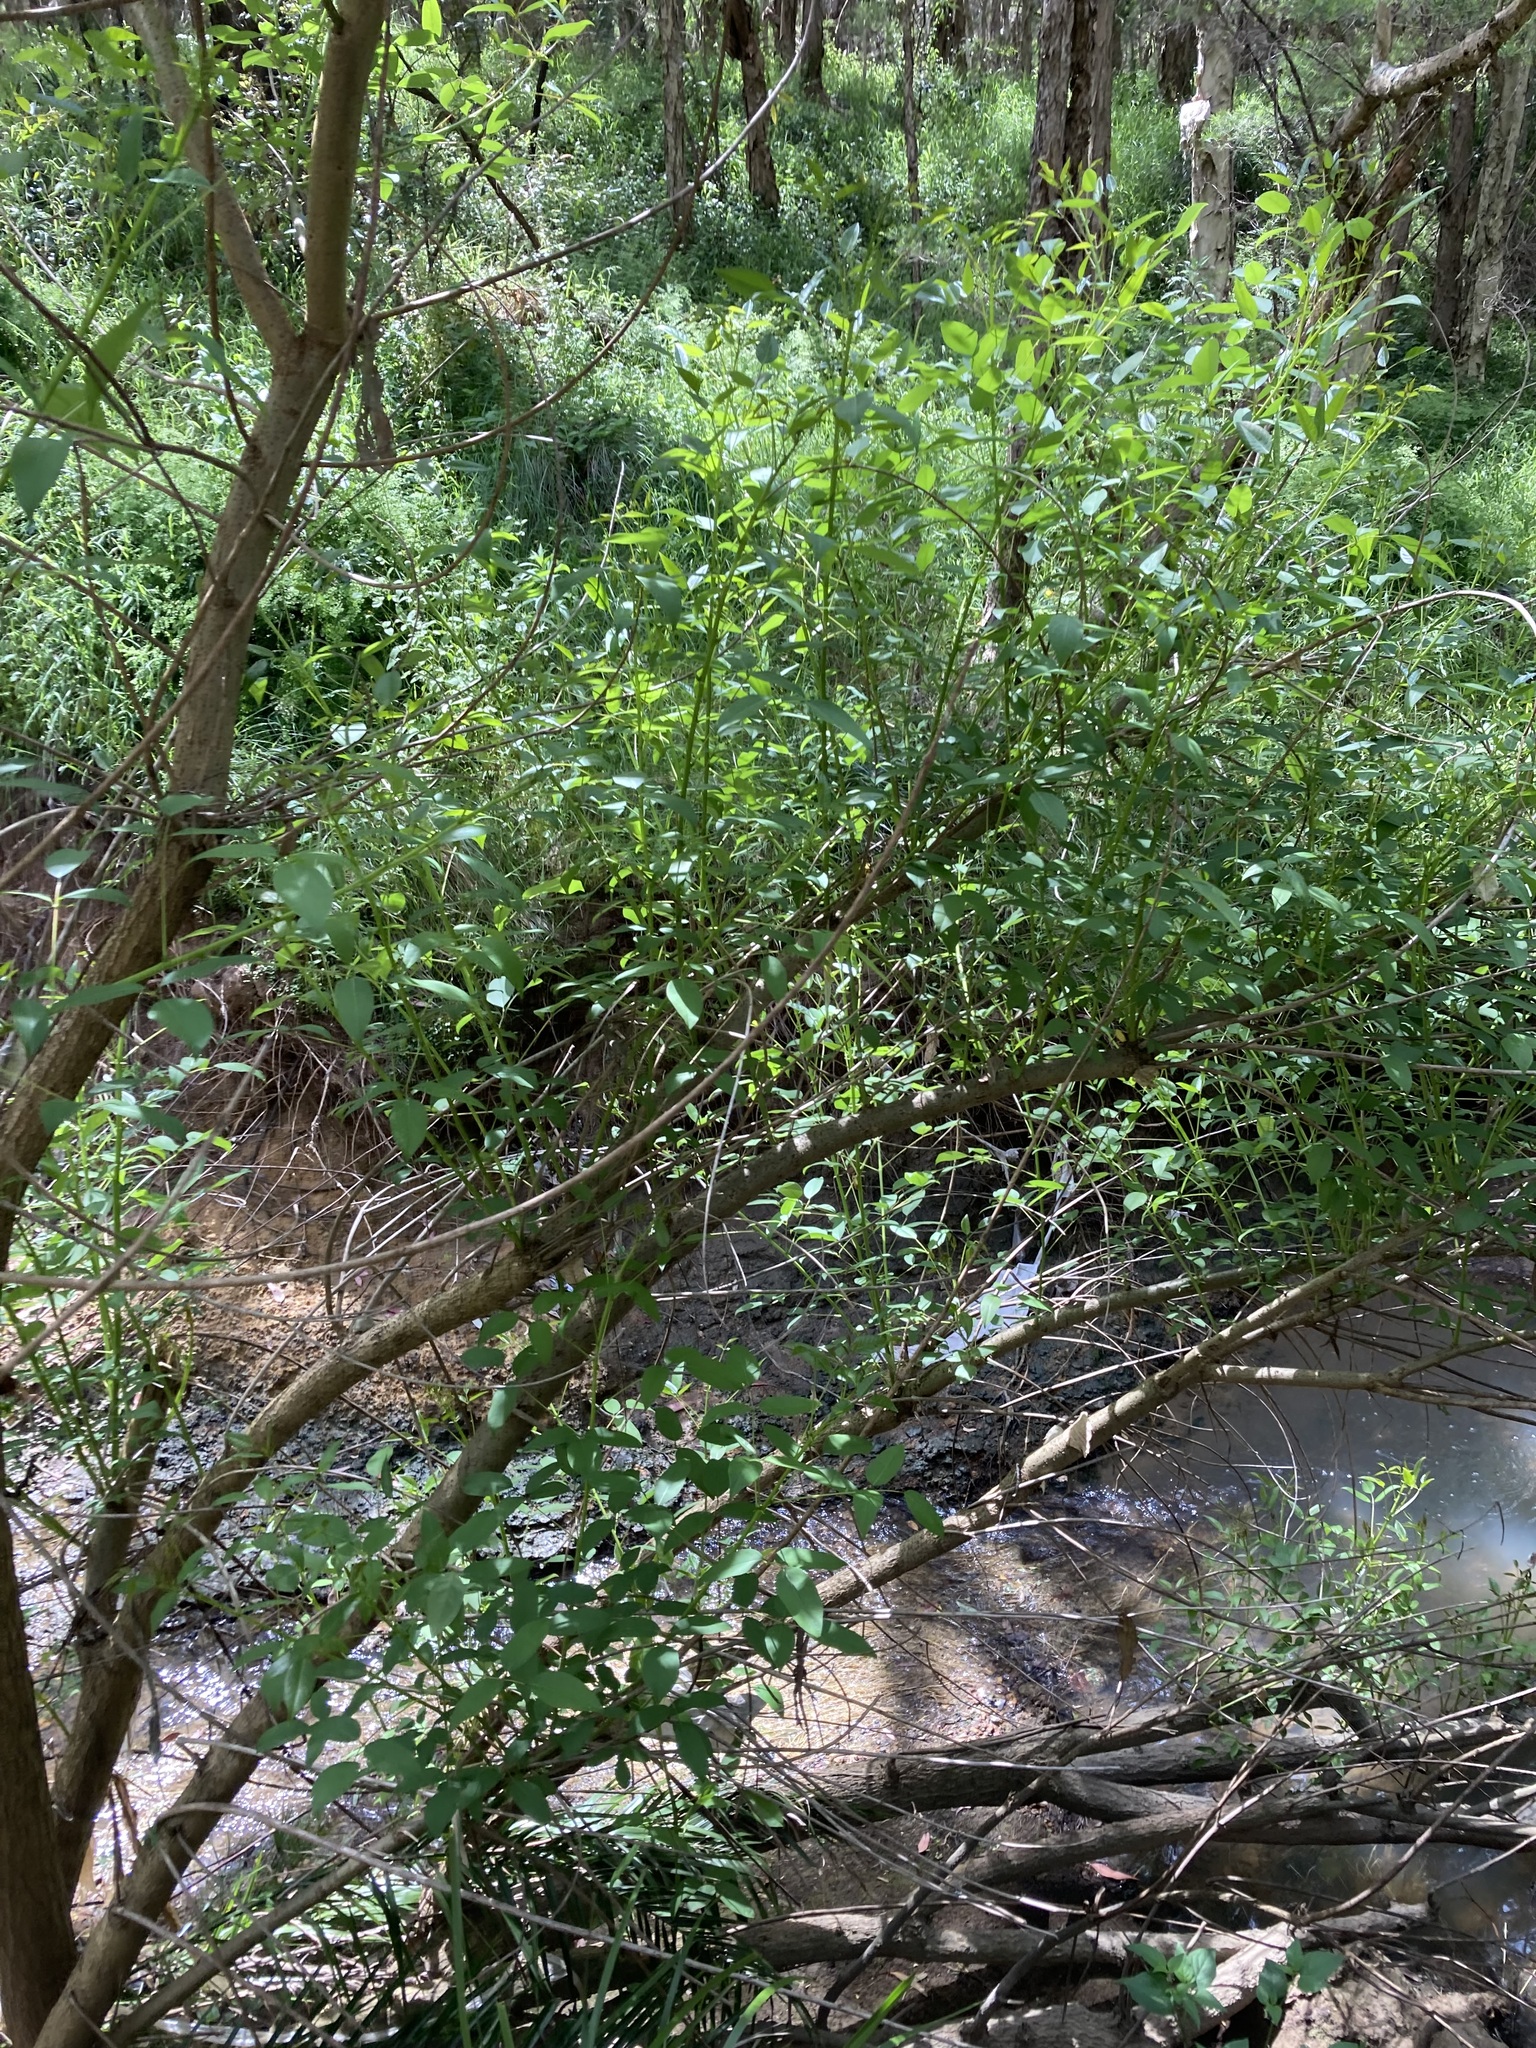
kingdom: Plantae
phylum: Tracheophyta
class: Magnoliopsida
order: Fabales
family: Fabaceae
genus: Erythrina
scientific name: Erythrina crista-galli
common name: Cockspur coral tree
